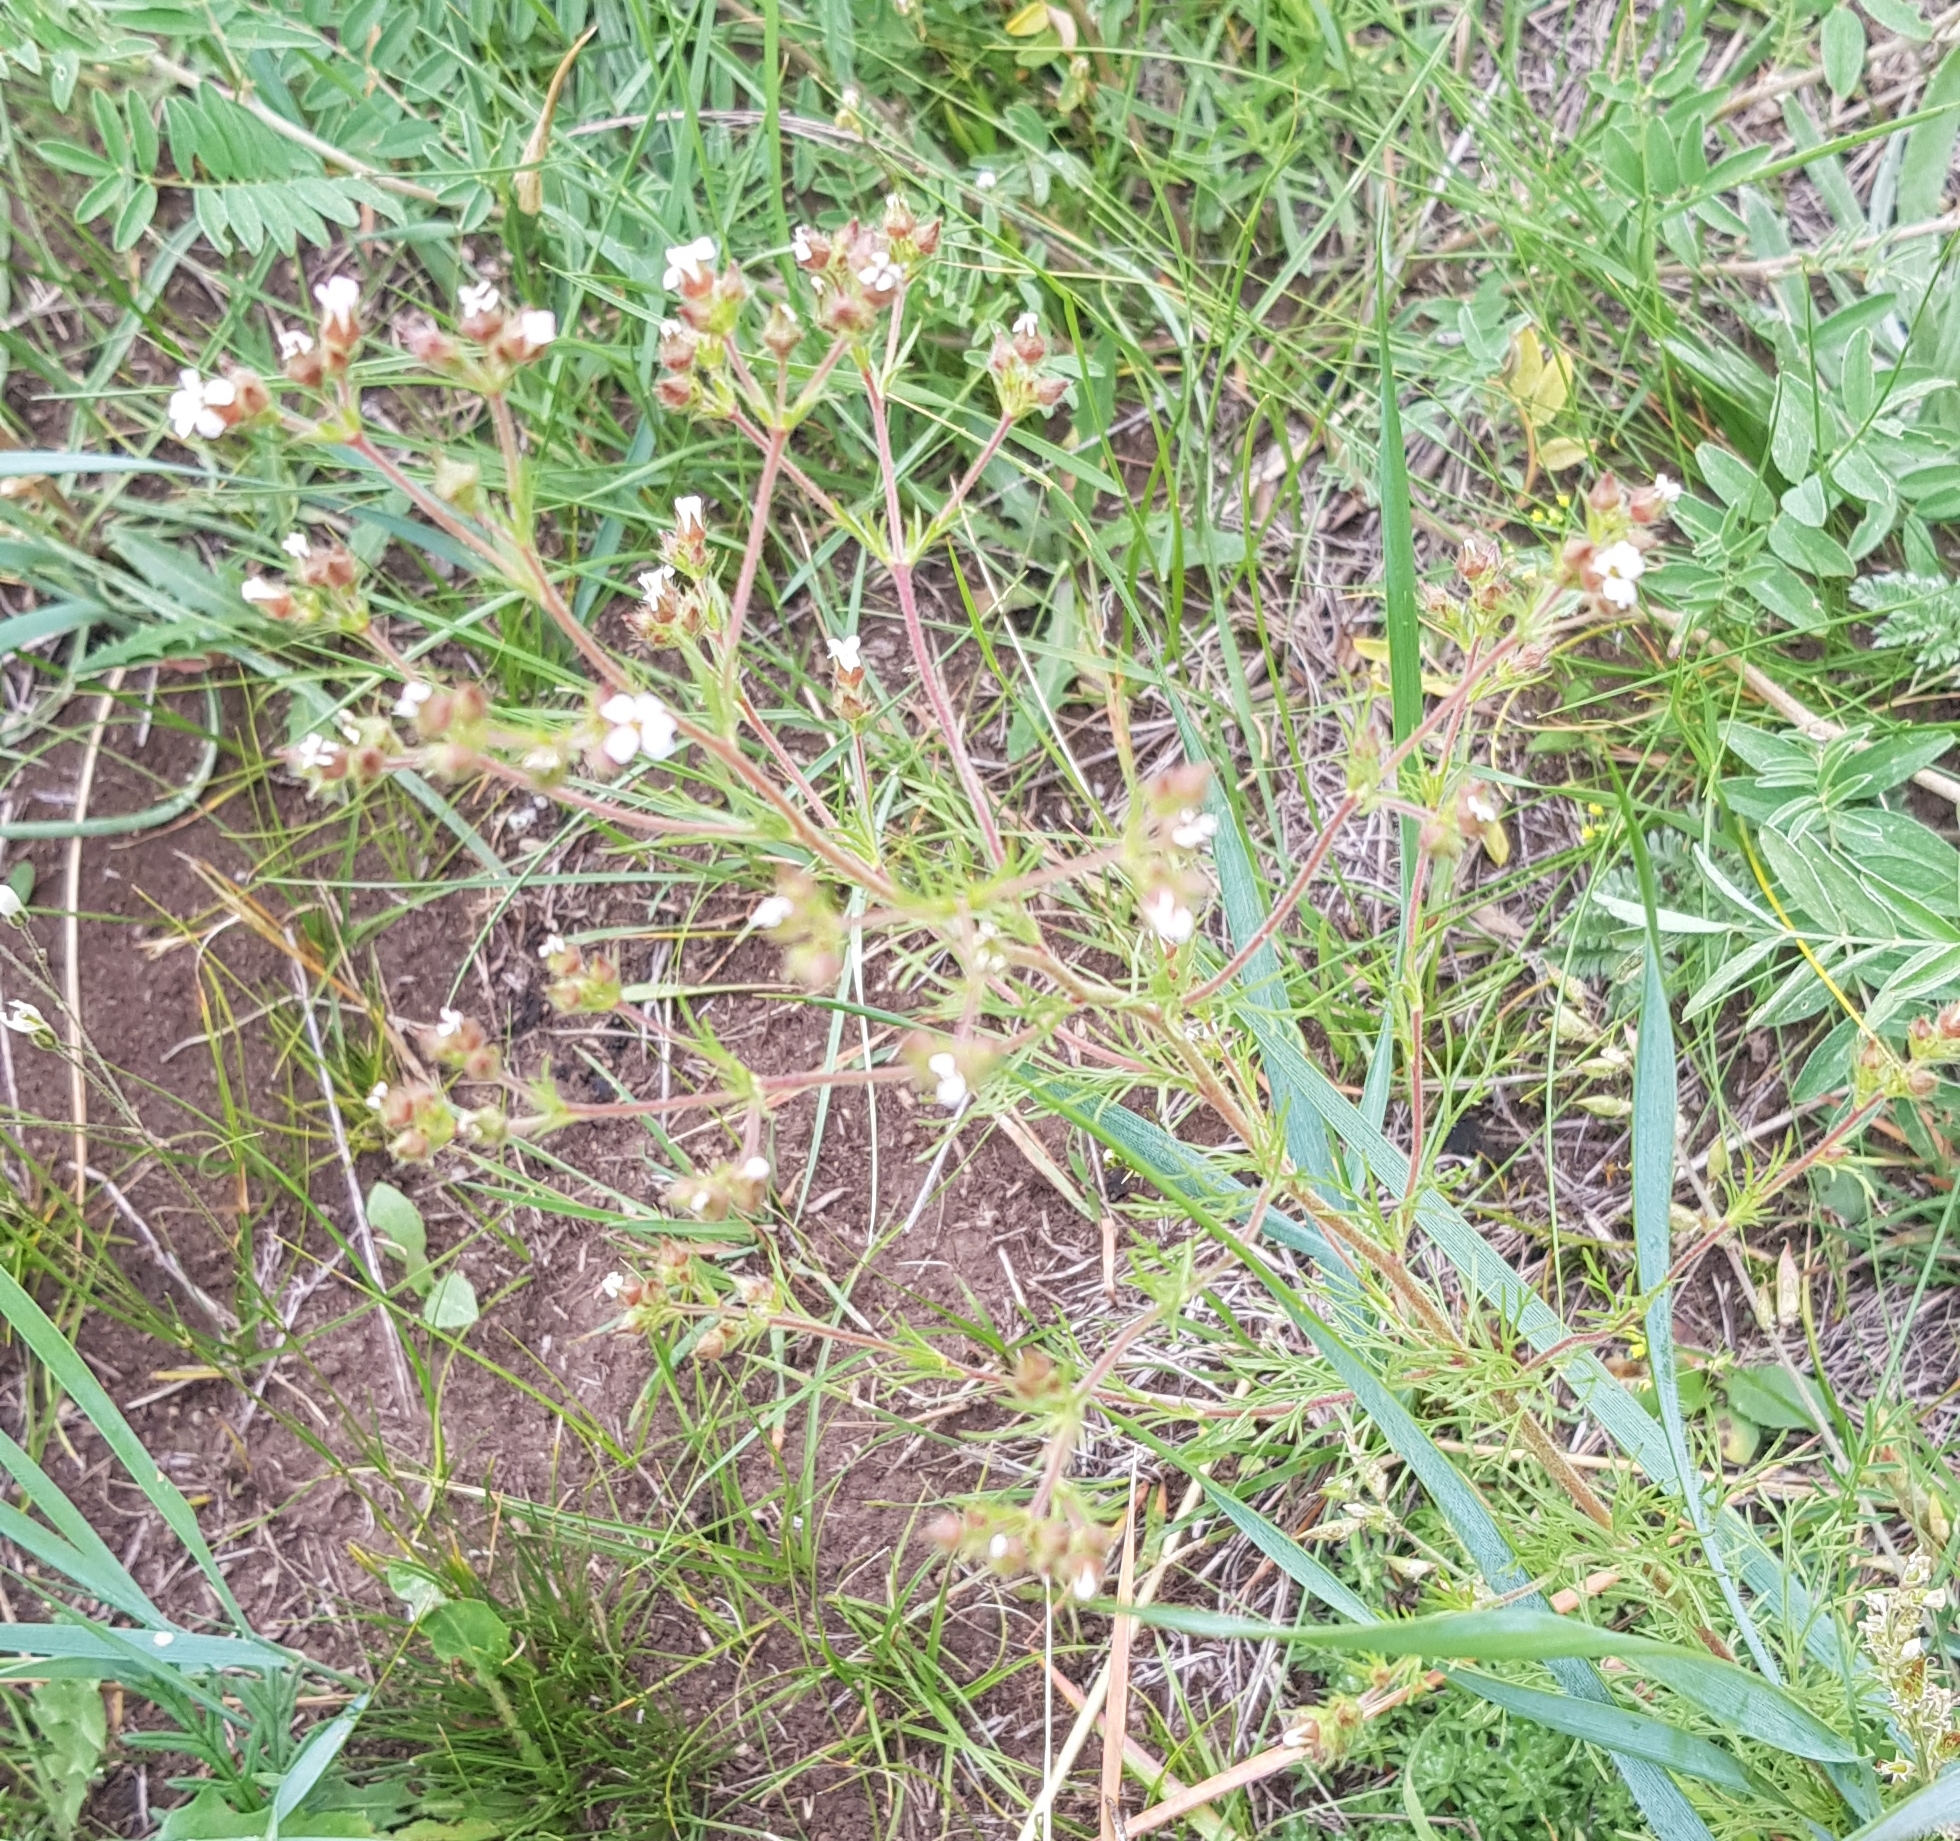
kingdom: Plantae
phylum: Tracheophyta
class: Magnoliopsida
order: Rosales
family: Rosaceae
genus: Chamaerhodos
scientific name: Chamaerhodos erecta
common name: American chamaerhodos
